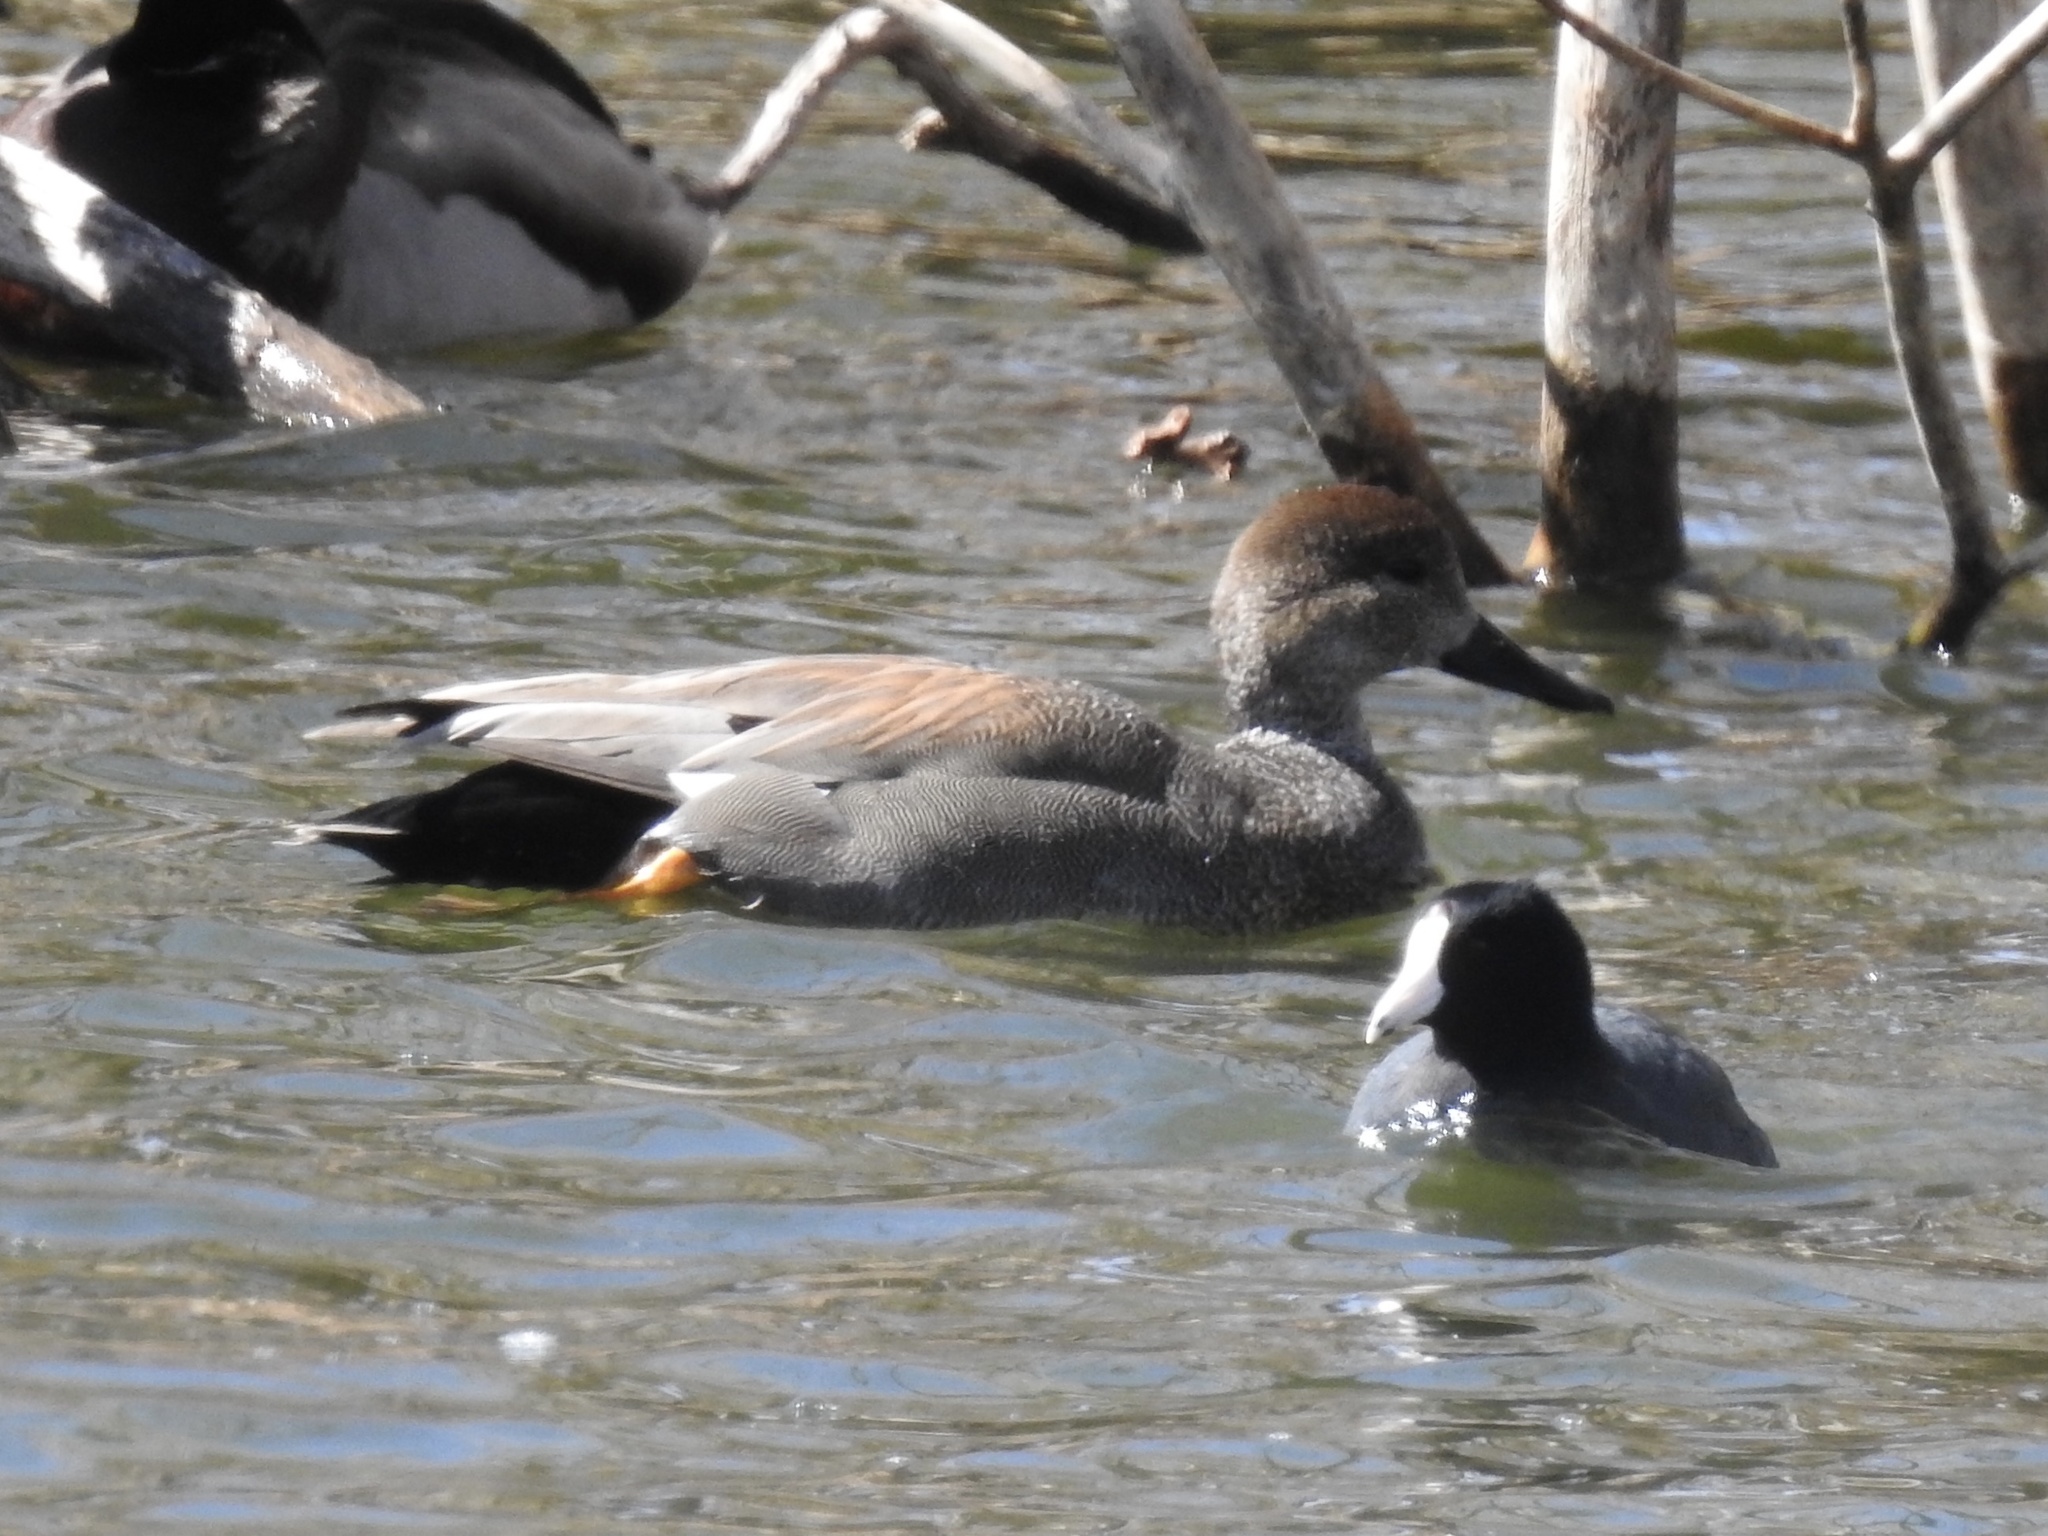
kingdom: Animalia
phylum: Chordata
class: Aves
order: Gruiformes
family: Rallidae
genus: Fulica
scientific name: Fulica americana
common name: American coot
